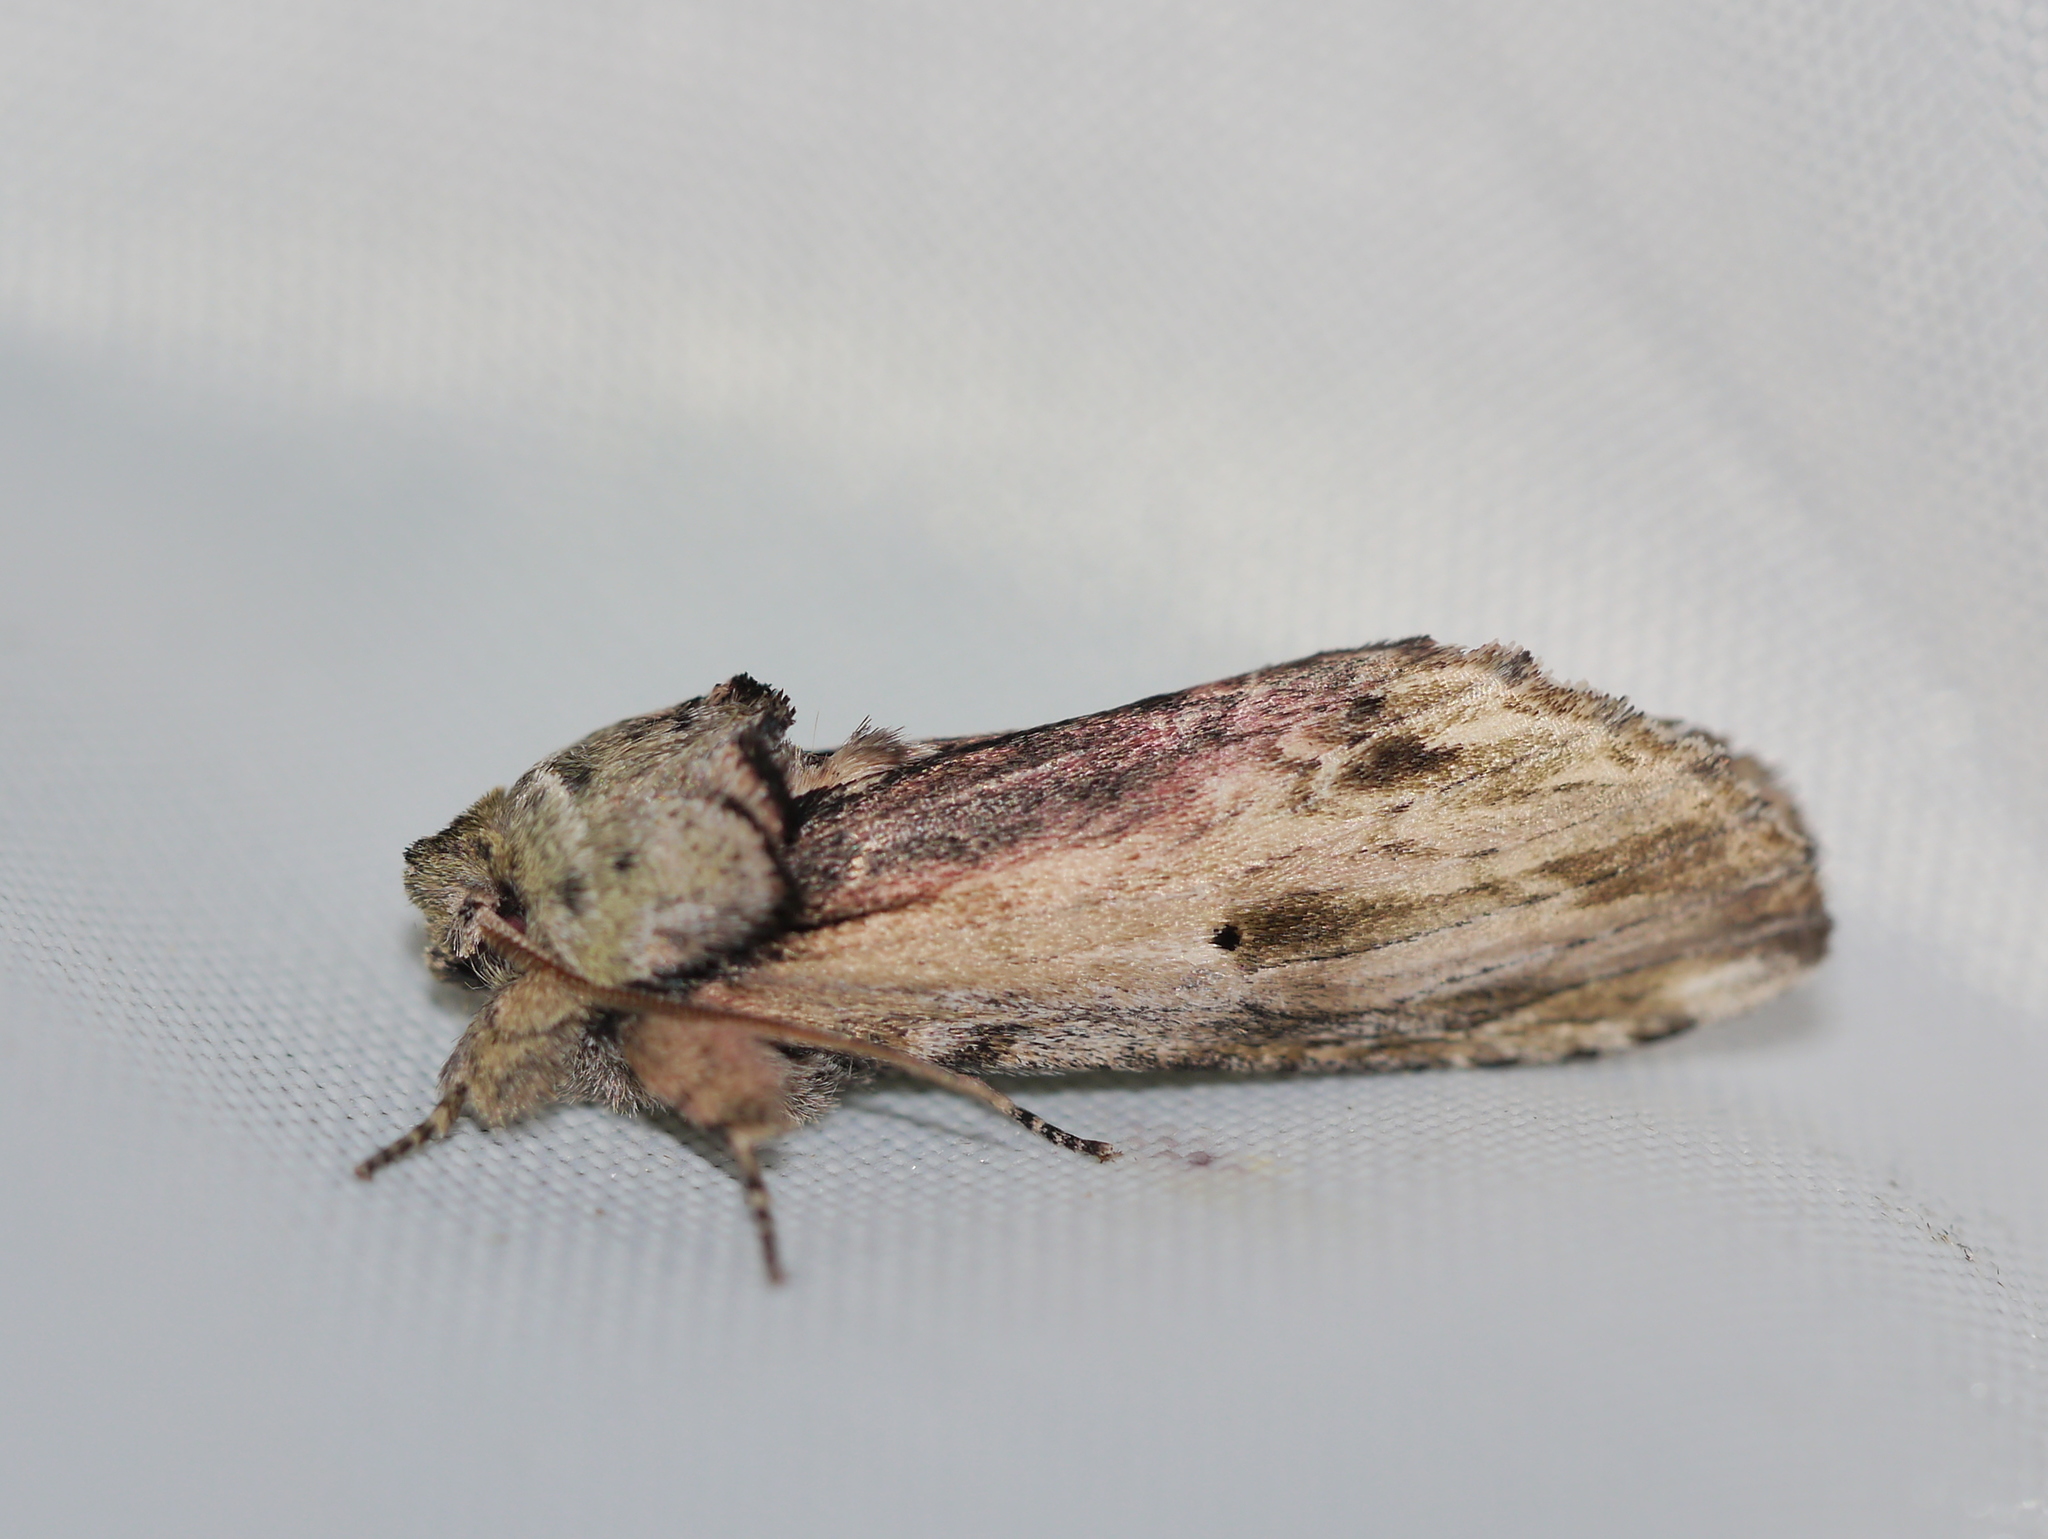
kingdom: Animalia
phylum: Arthropoda
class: Insecta
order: Lepidoptera
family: Notodontidae
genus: Schizura
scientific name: Schizura
